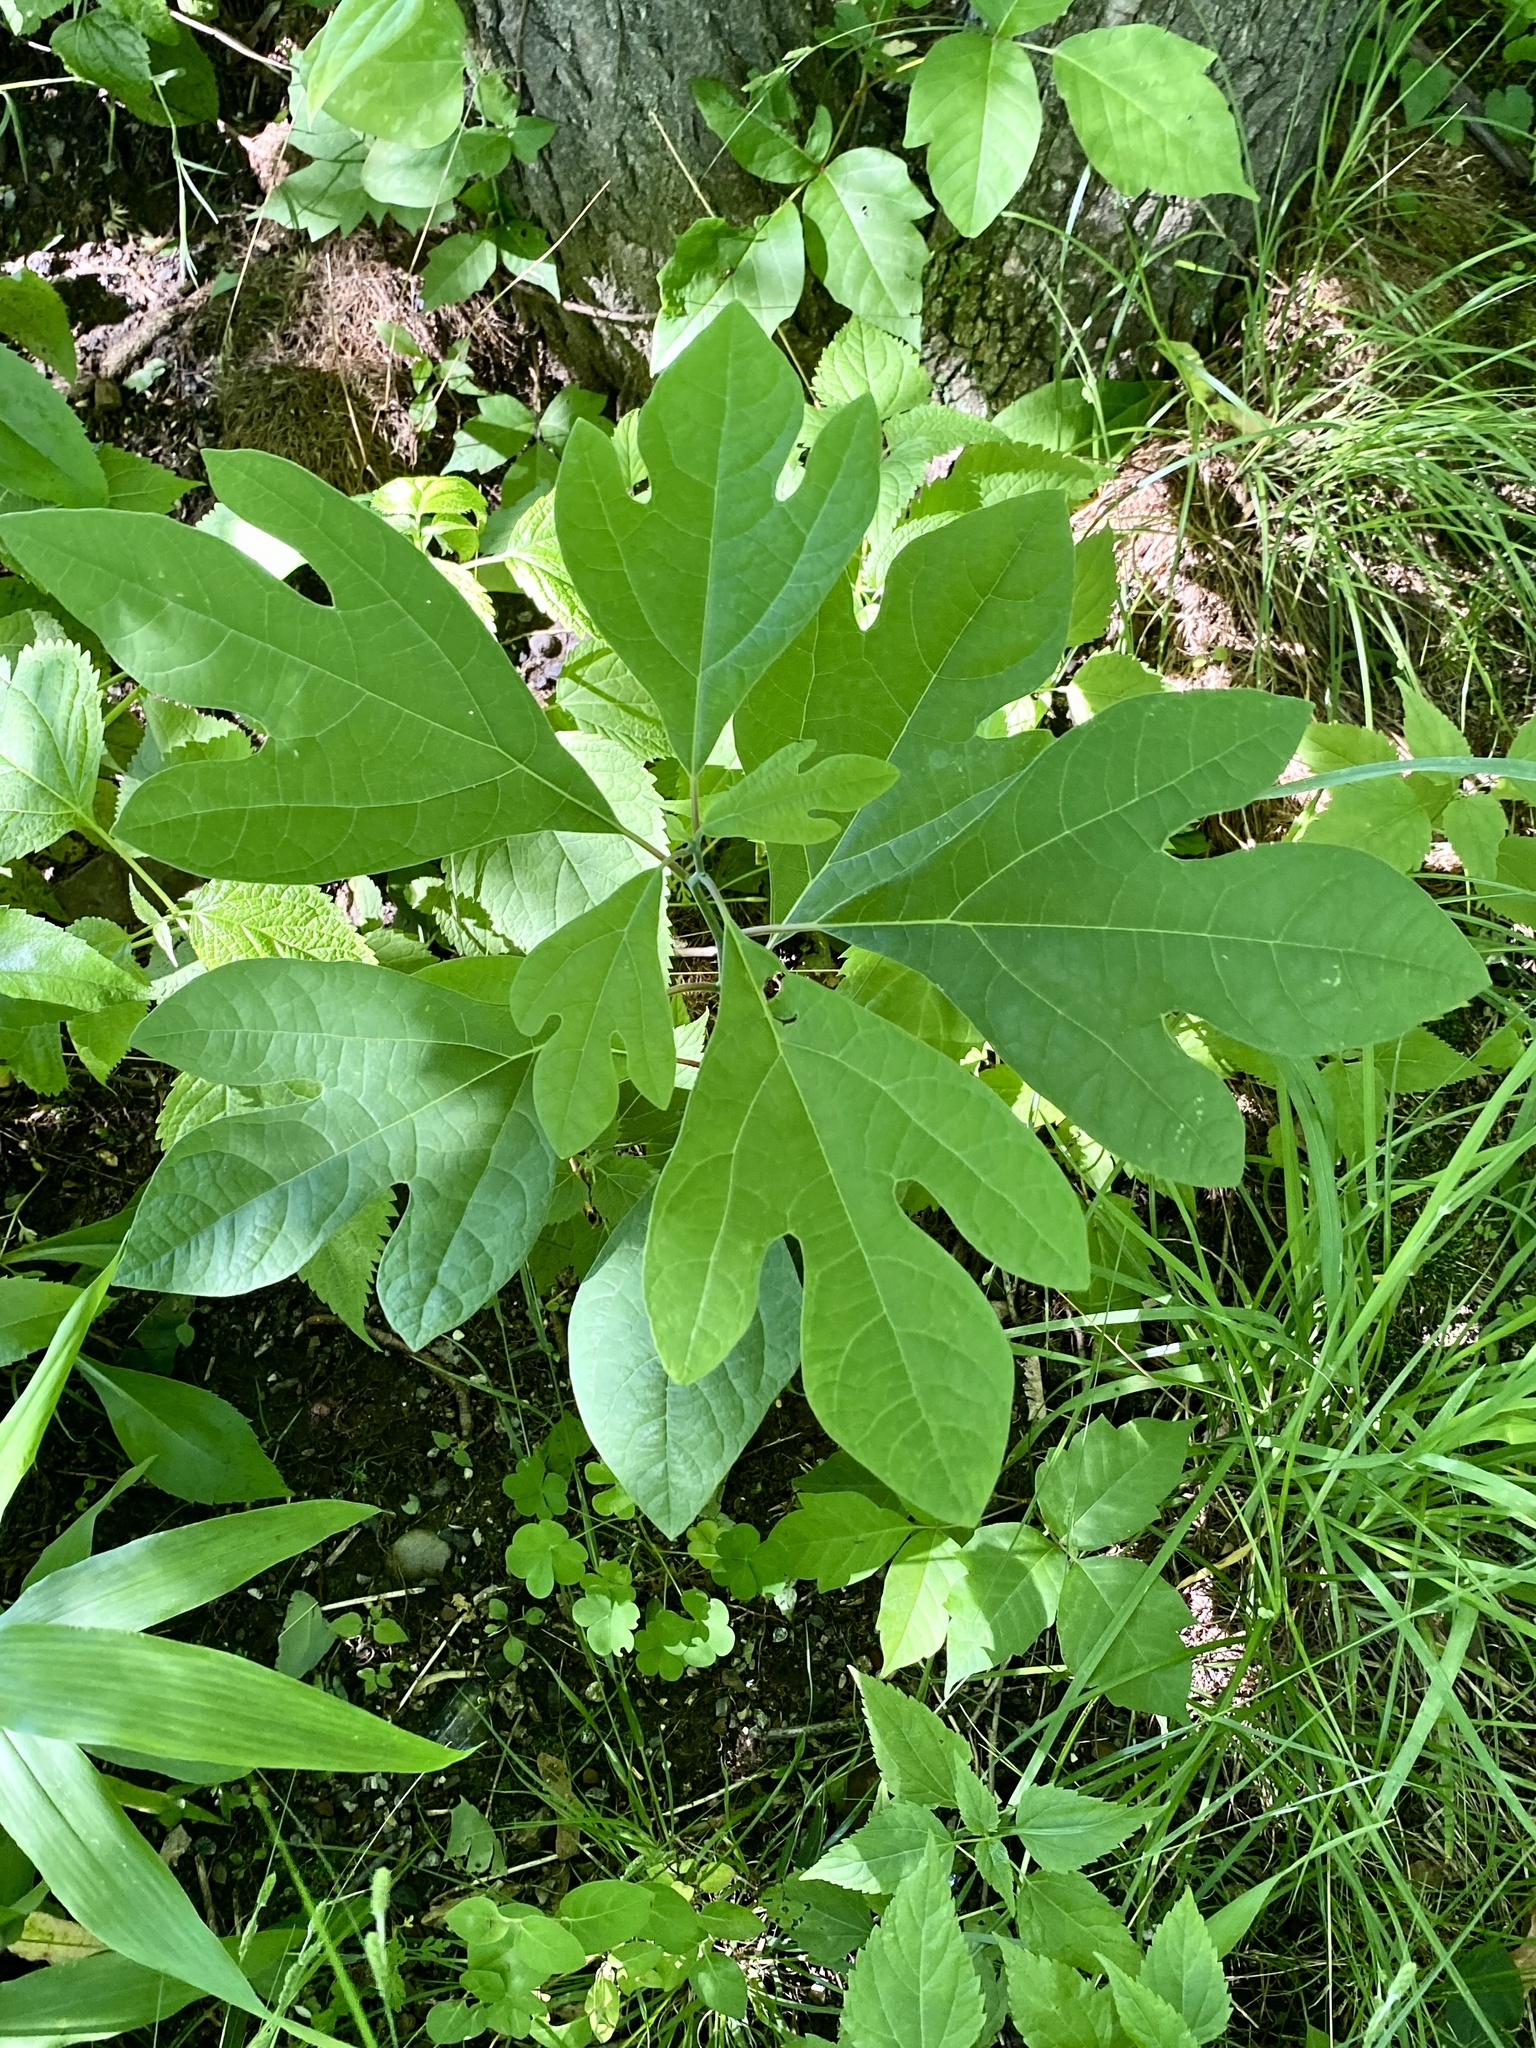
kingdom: Plantae
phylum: Tracheophyta
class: Magnoliopsida
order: Laurales
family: Lauraceae
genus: Sassafras
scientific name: Sassafras albidum
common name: Sassafras
